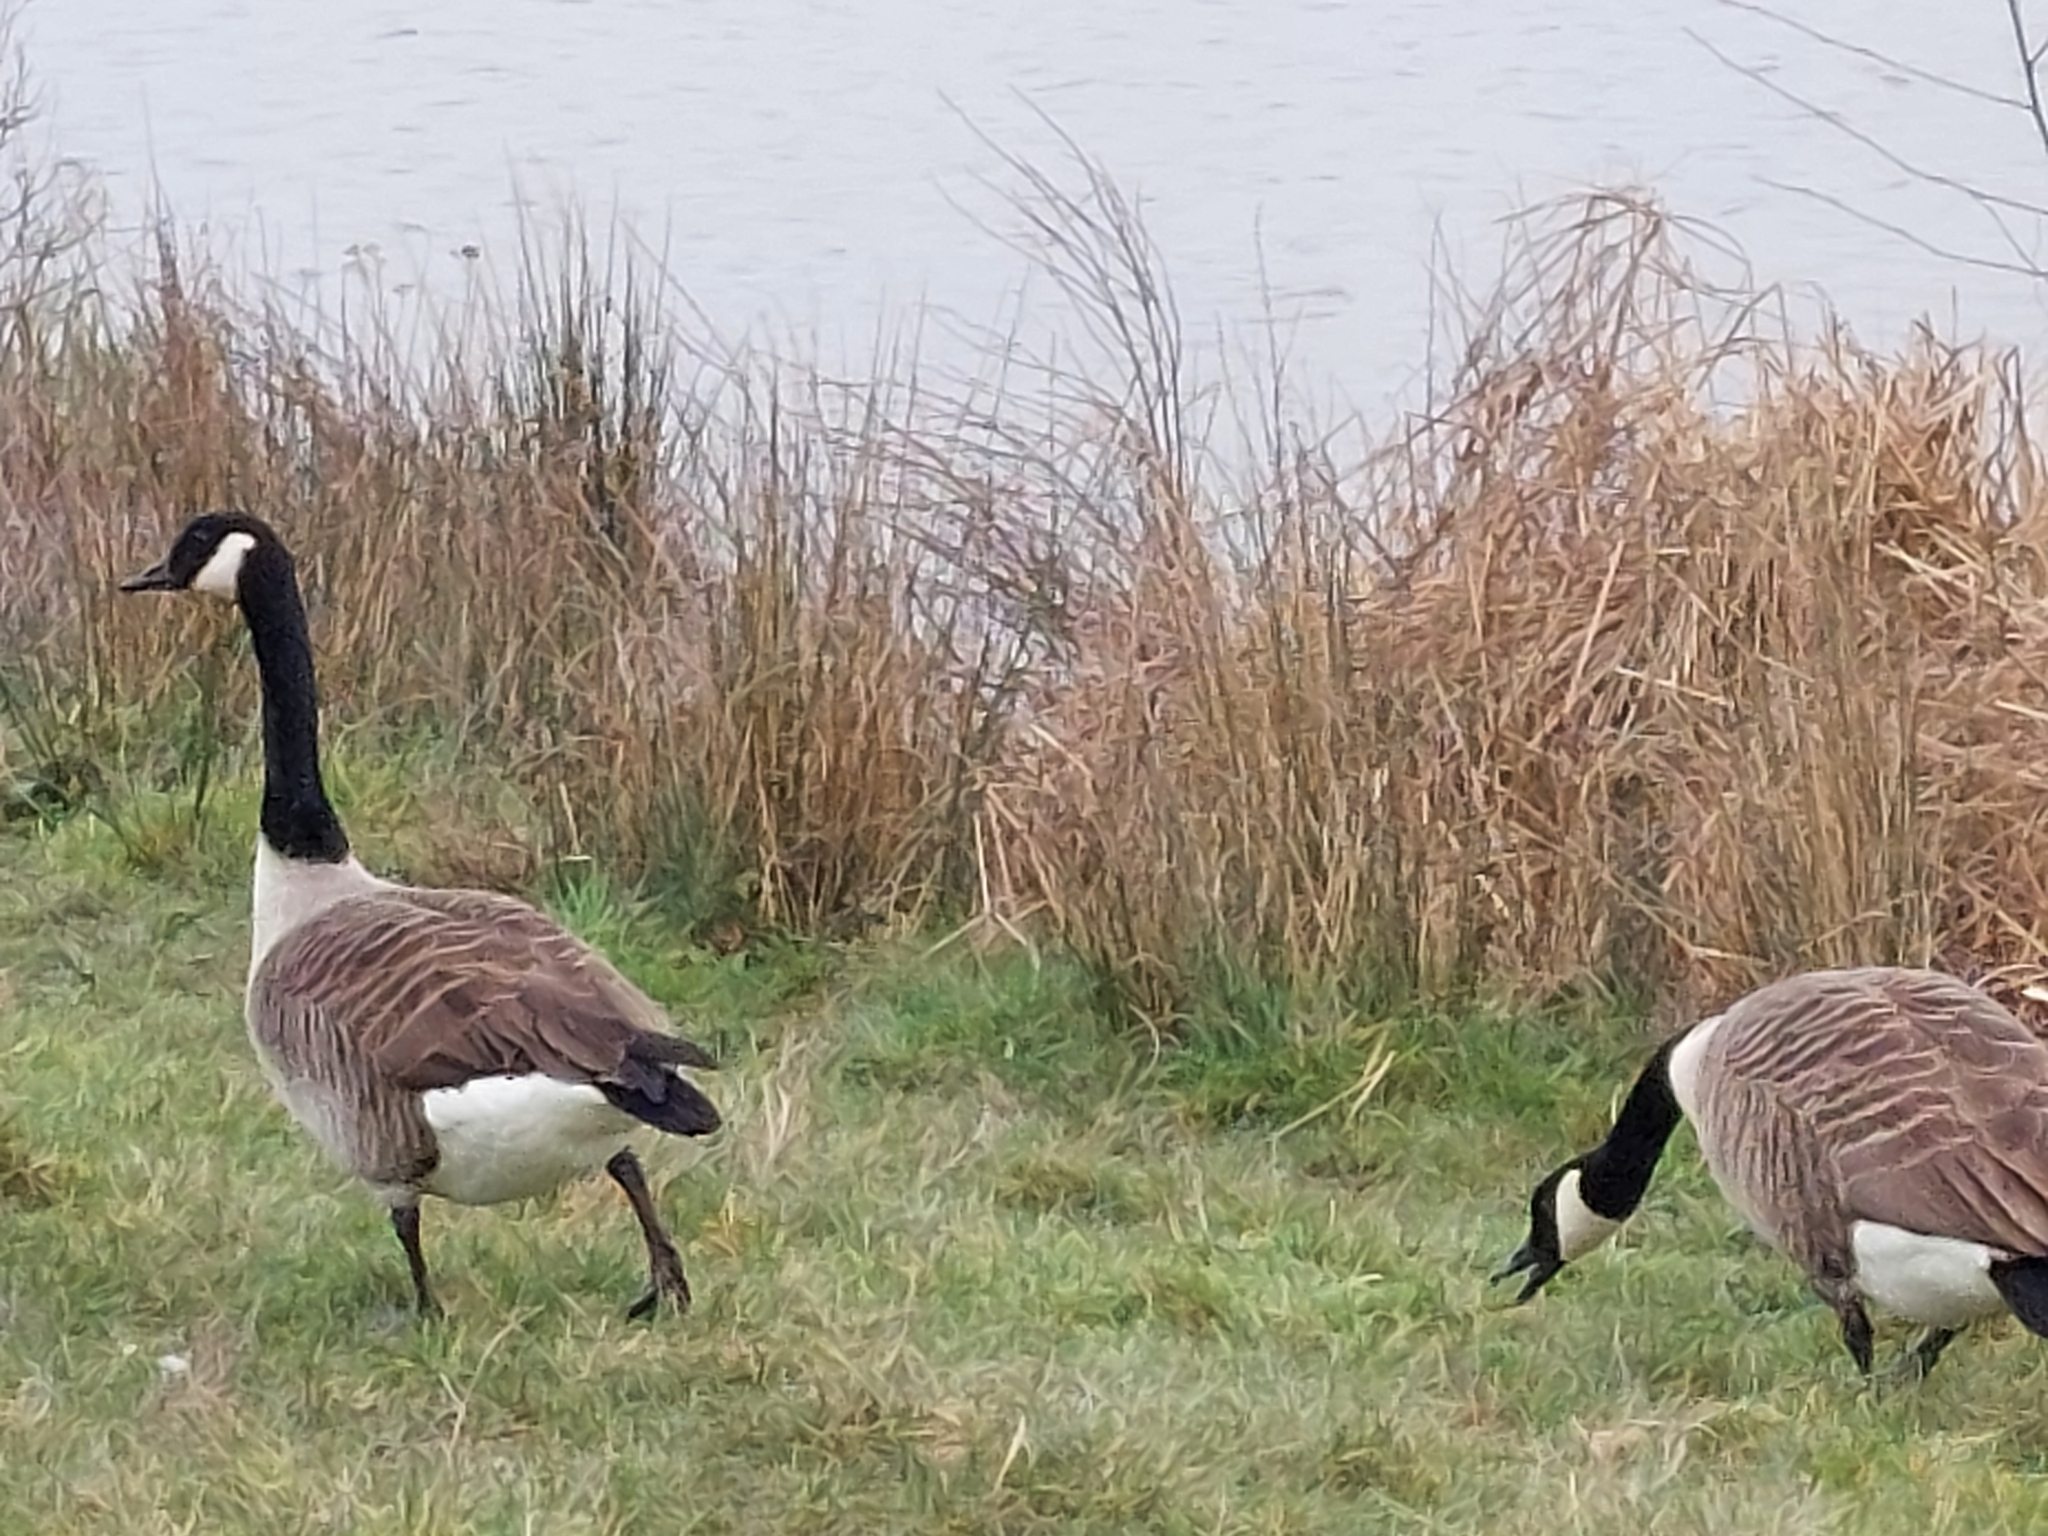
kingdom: Animalia
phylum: Chordata
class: Aves
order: Anseriformes
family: Anatidae
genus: Branta
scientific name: Branta canadensis
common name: Canada goose
